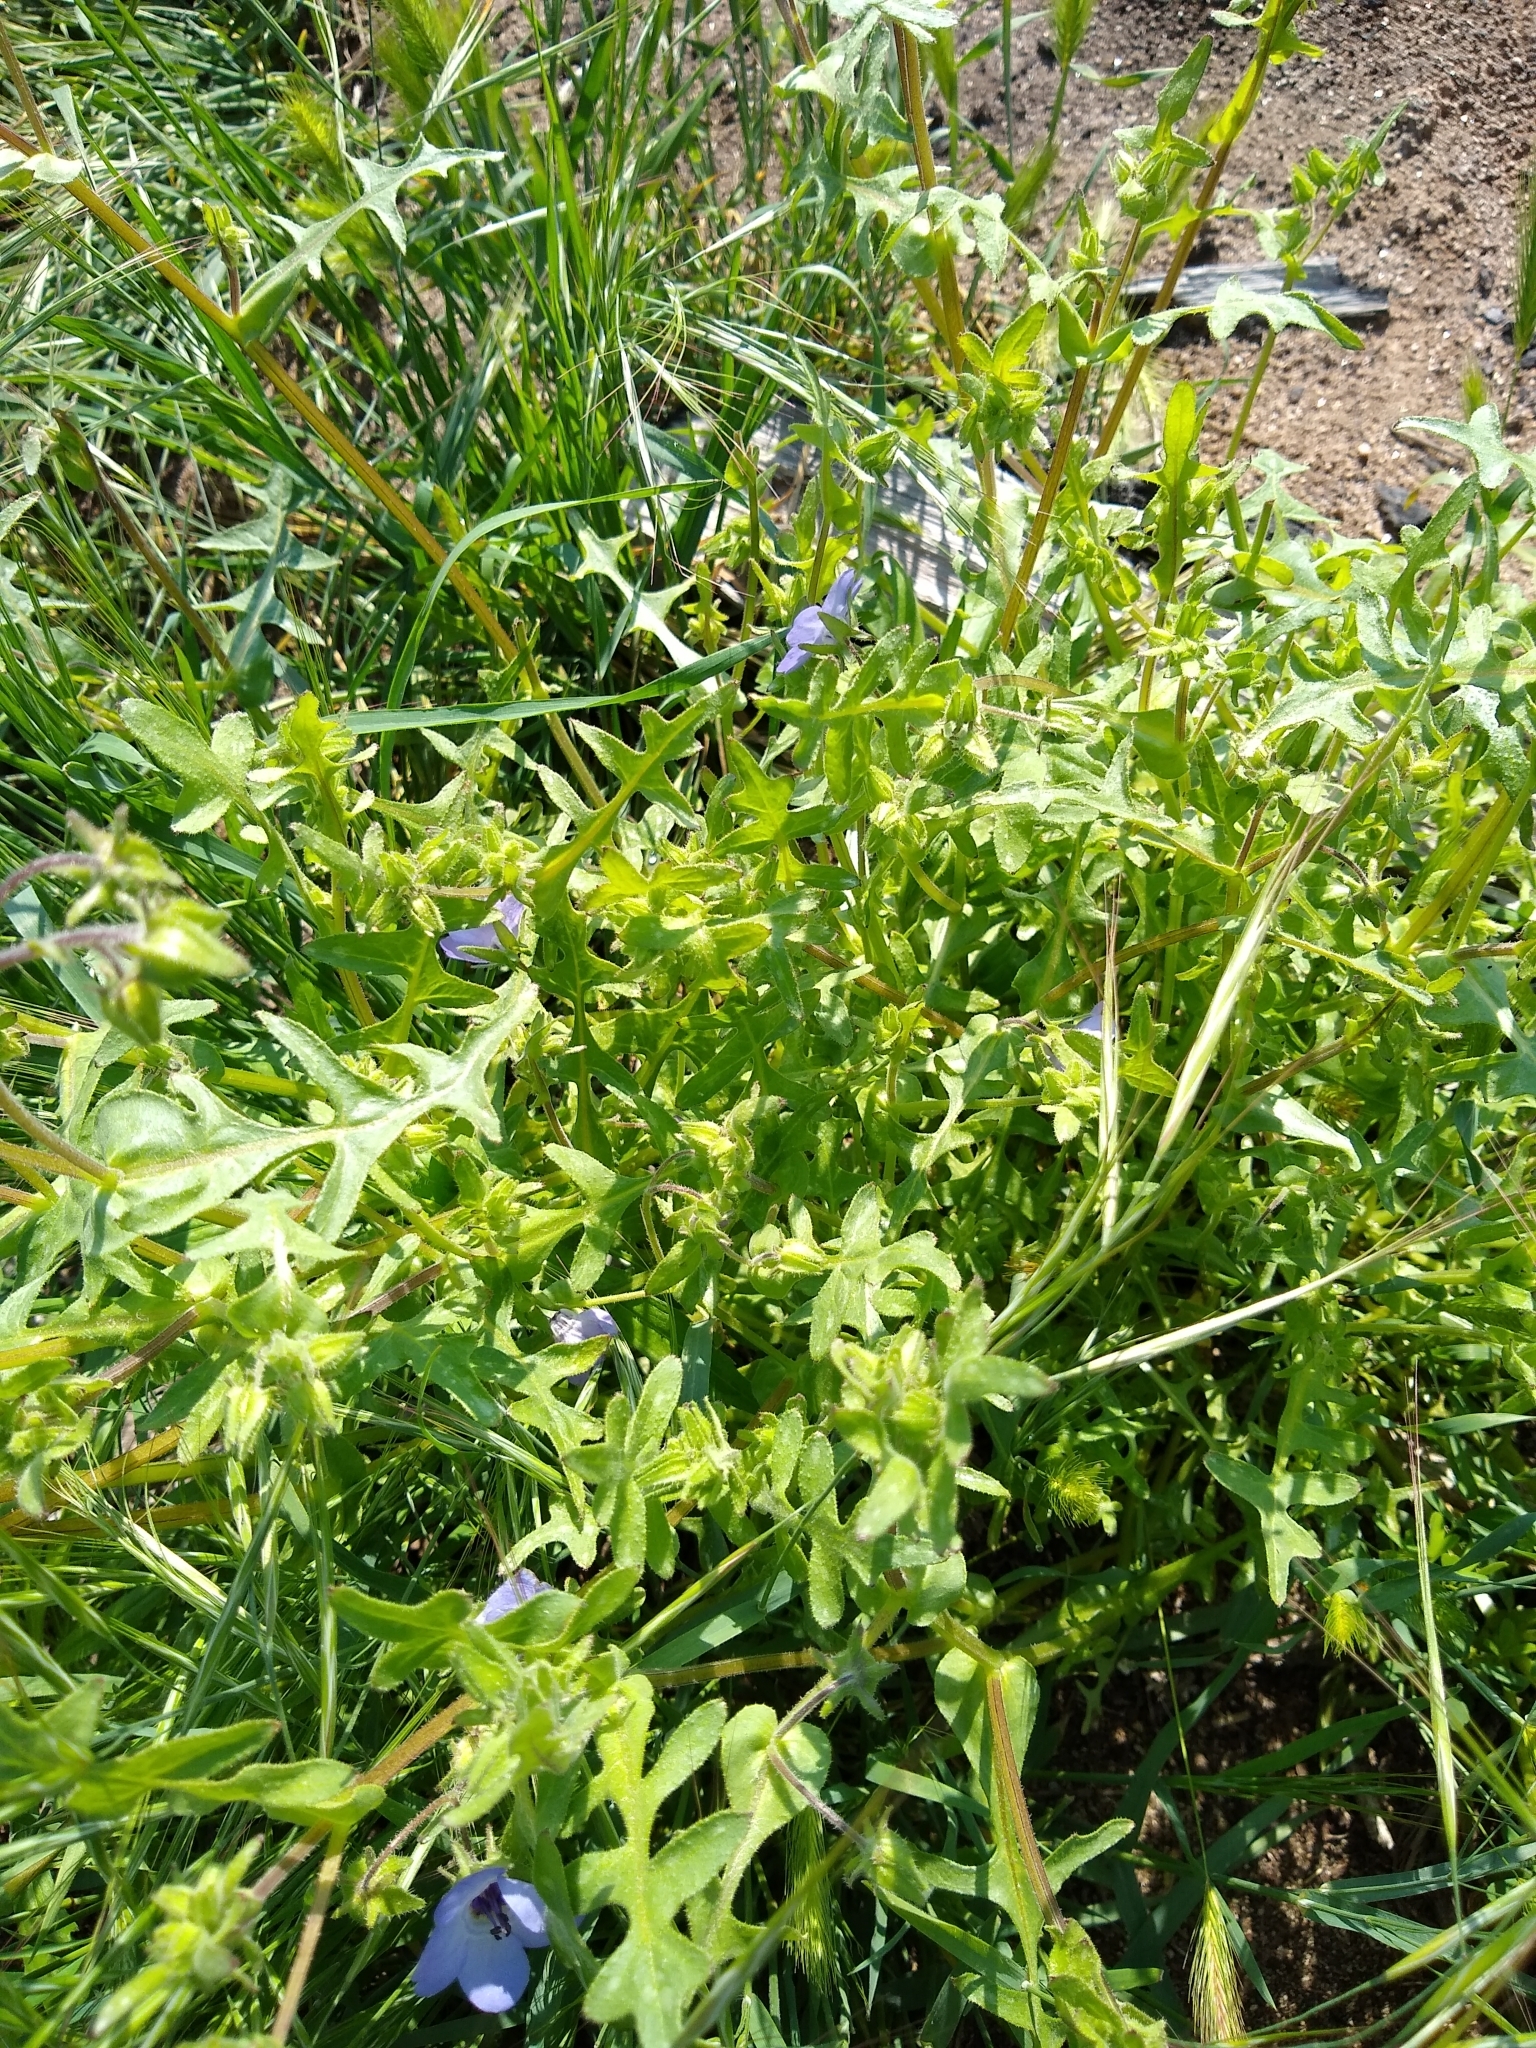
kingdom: Plantae
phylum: Tracheophyta
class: Magnoliopsida
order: Boraginales
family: Hydrophyllaceae
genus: Pholistoma
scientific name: Pholistoma auritum
